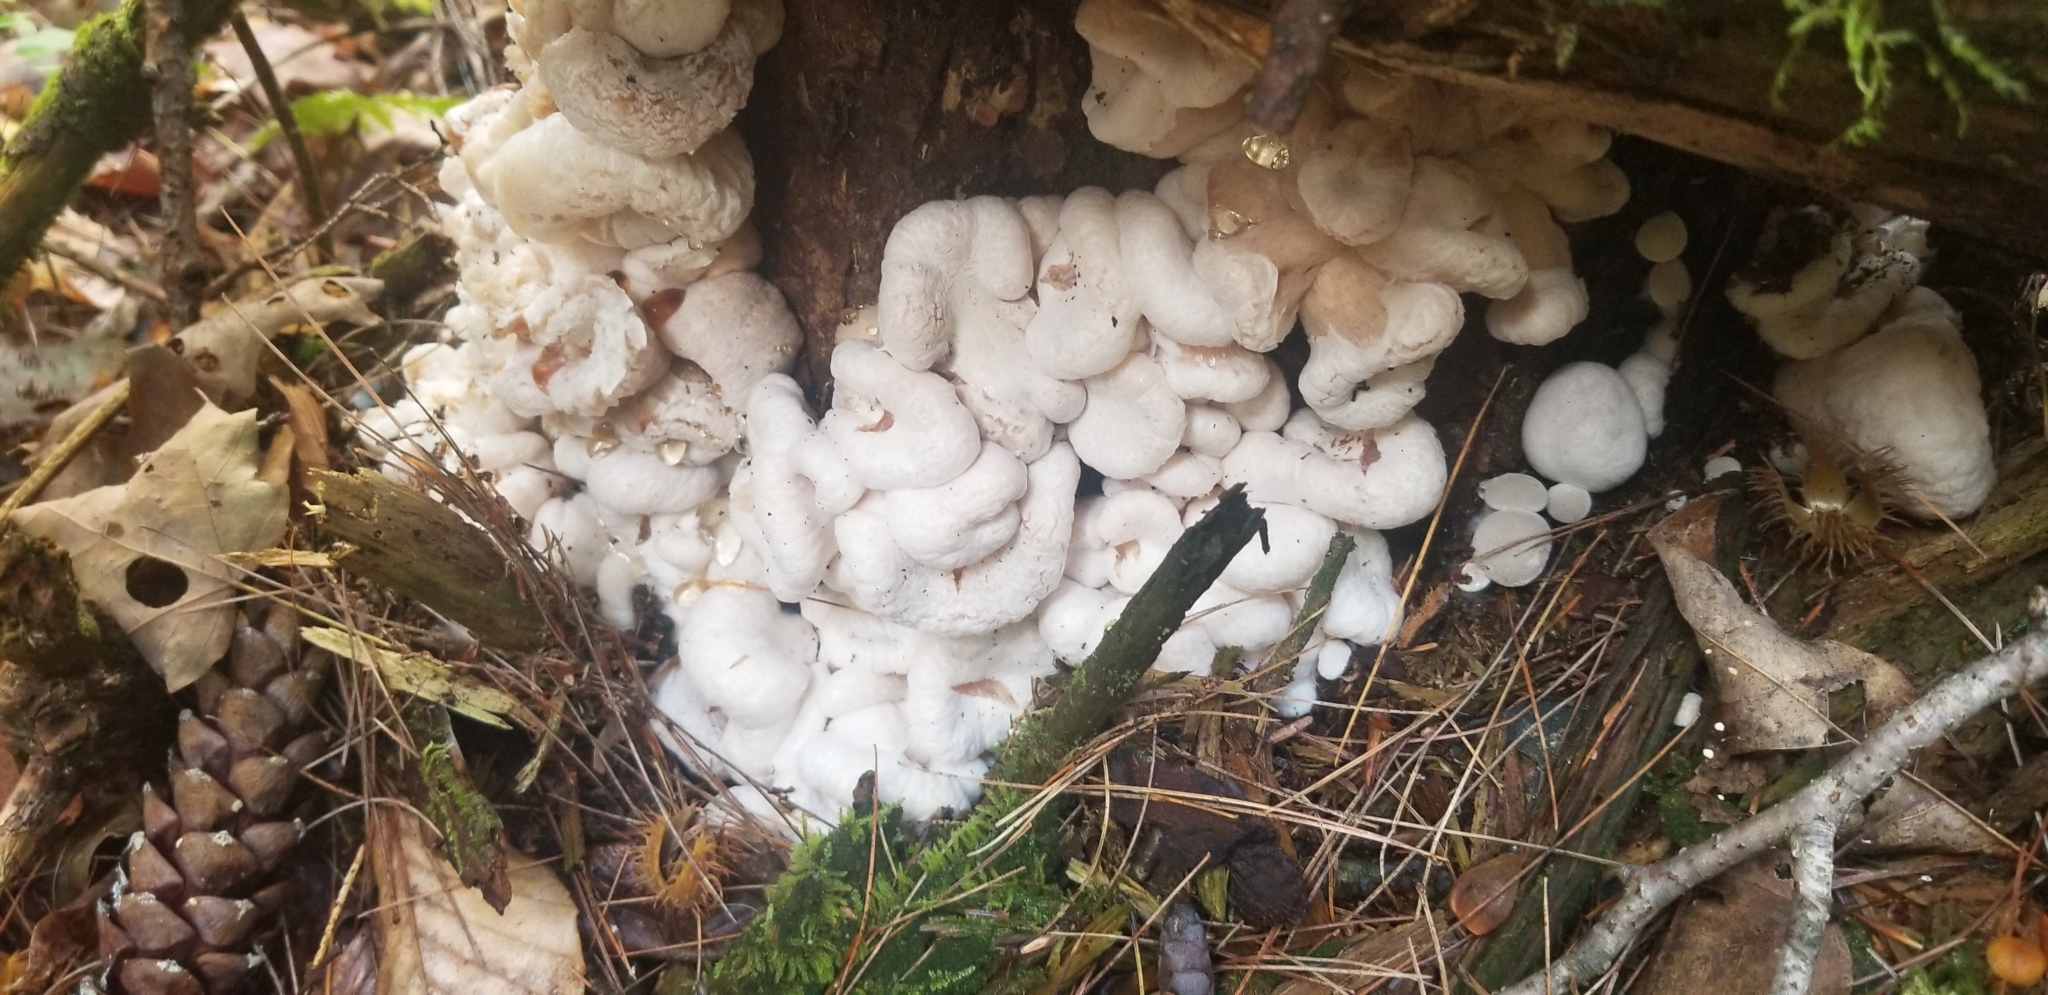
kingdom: Fungi
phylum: Basidiomycota
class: Agaricomycetes
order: Agaricales
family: Entolomataceae
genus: Entoloma
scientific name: Entoloma abortivum
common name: Aborted entoloma
